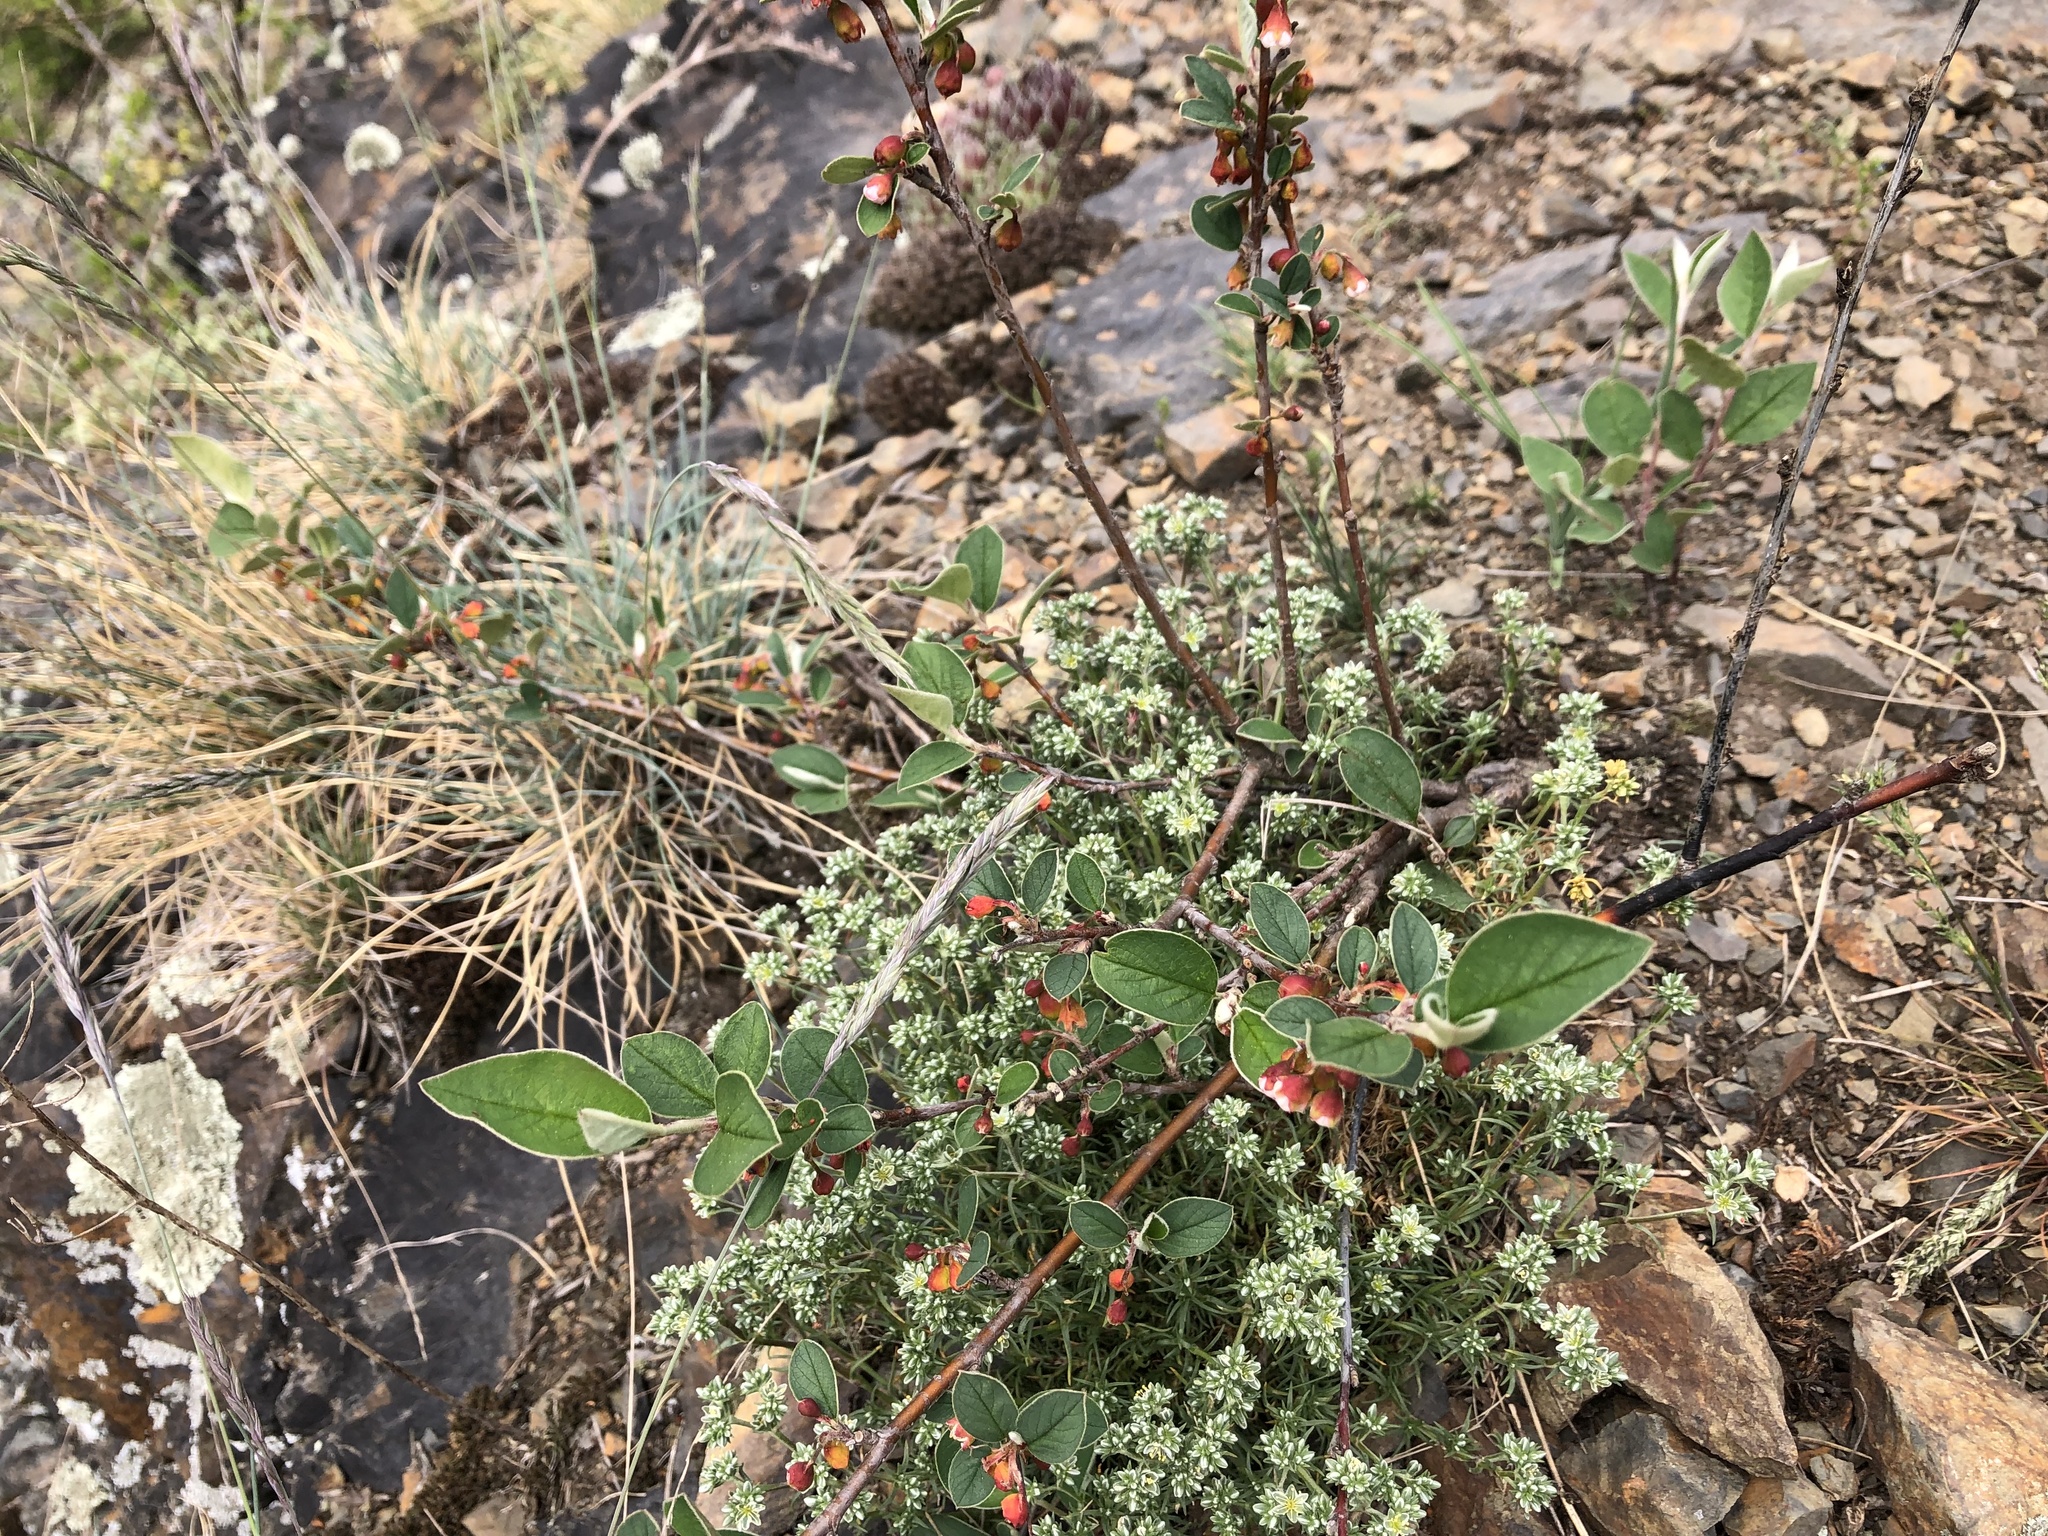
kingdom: Plantae
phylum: Tracheophyta
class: Magnoliopsida
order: Rosales
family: Rosaceae
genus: Cotoneaster
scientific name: Cotoneaster integerrimus
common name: Wild cotoneaster
